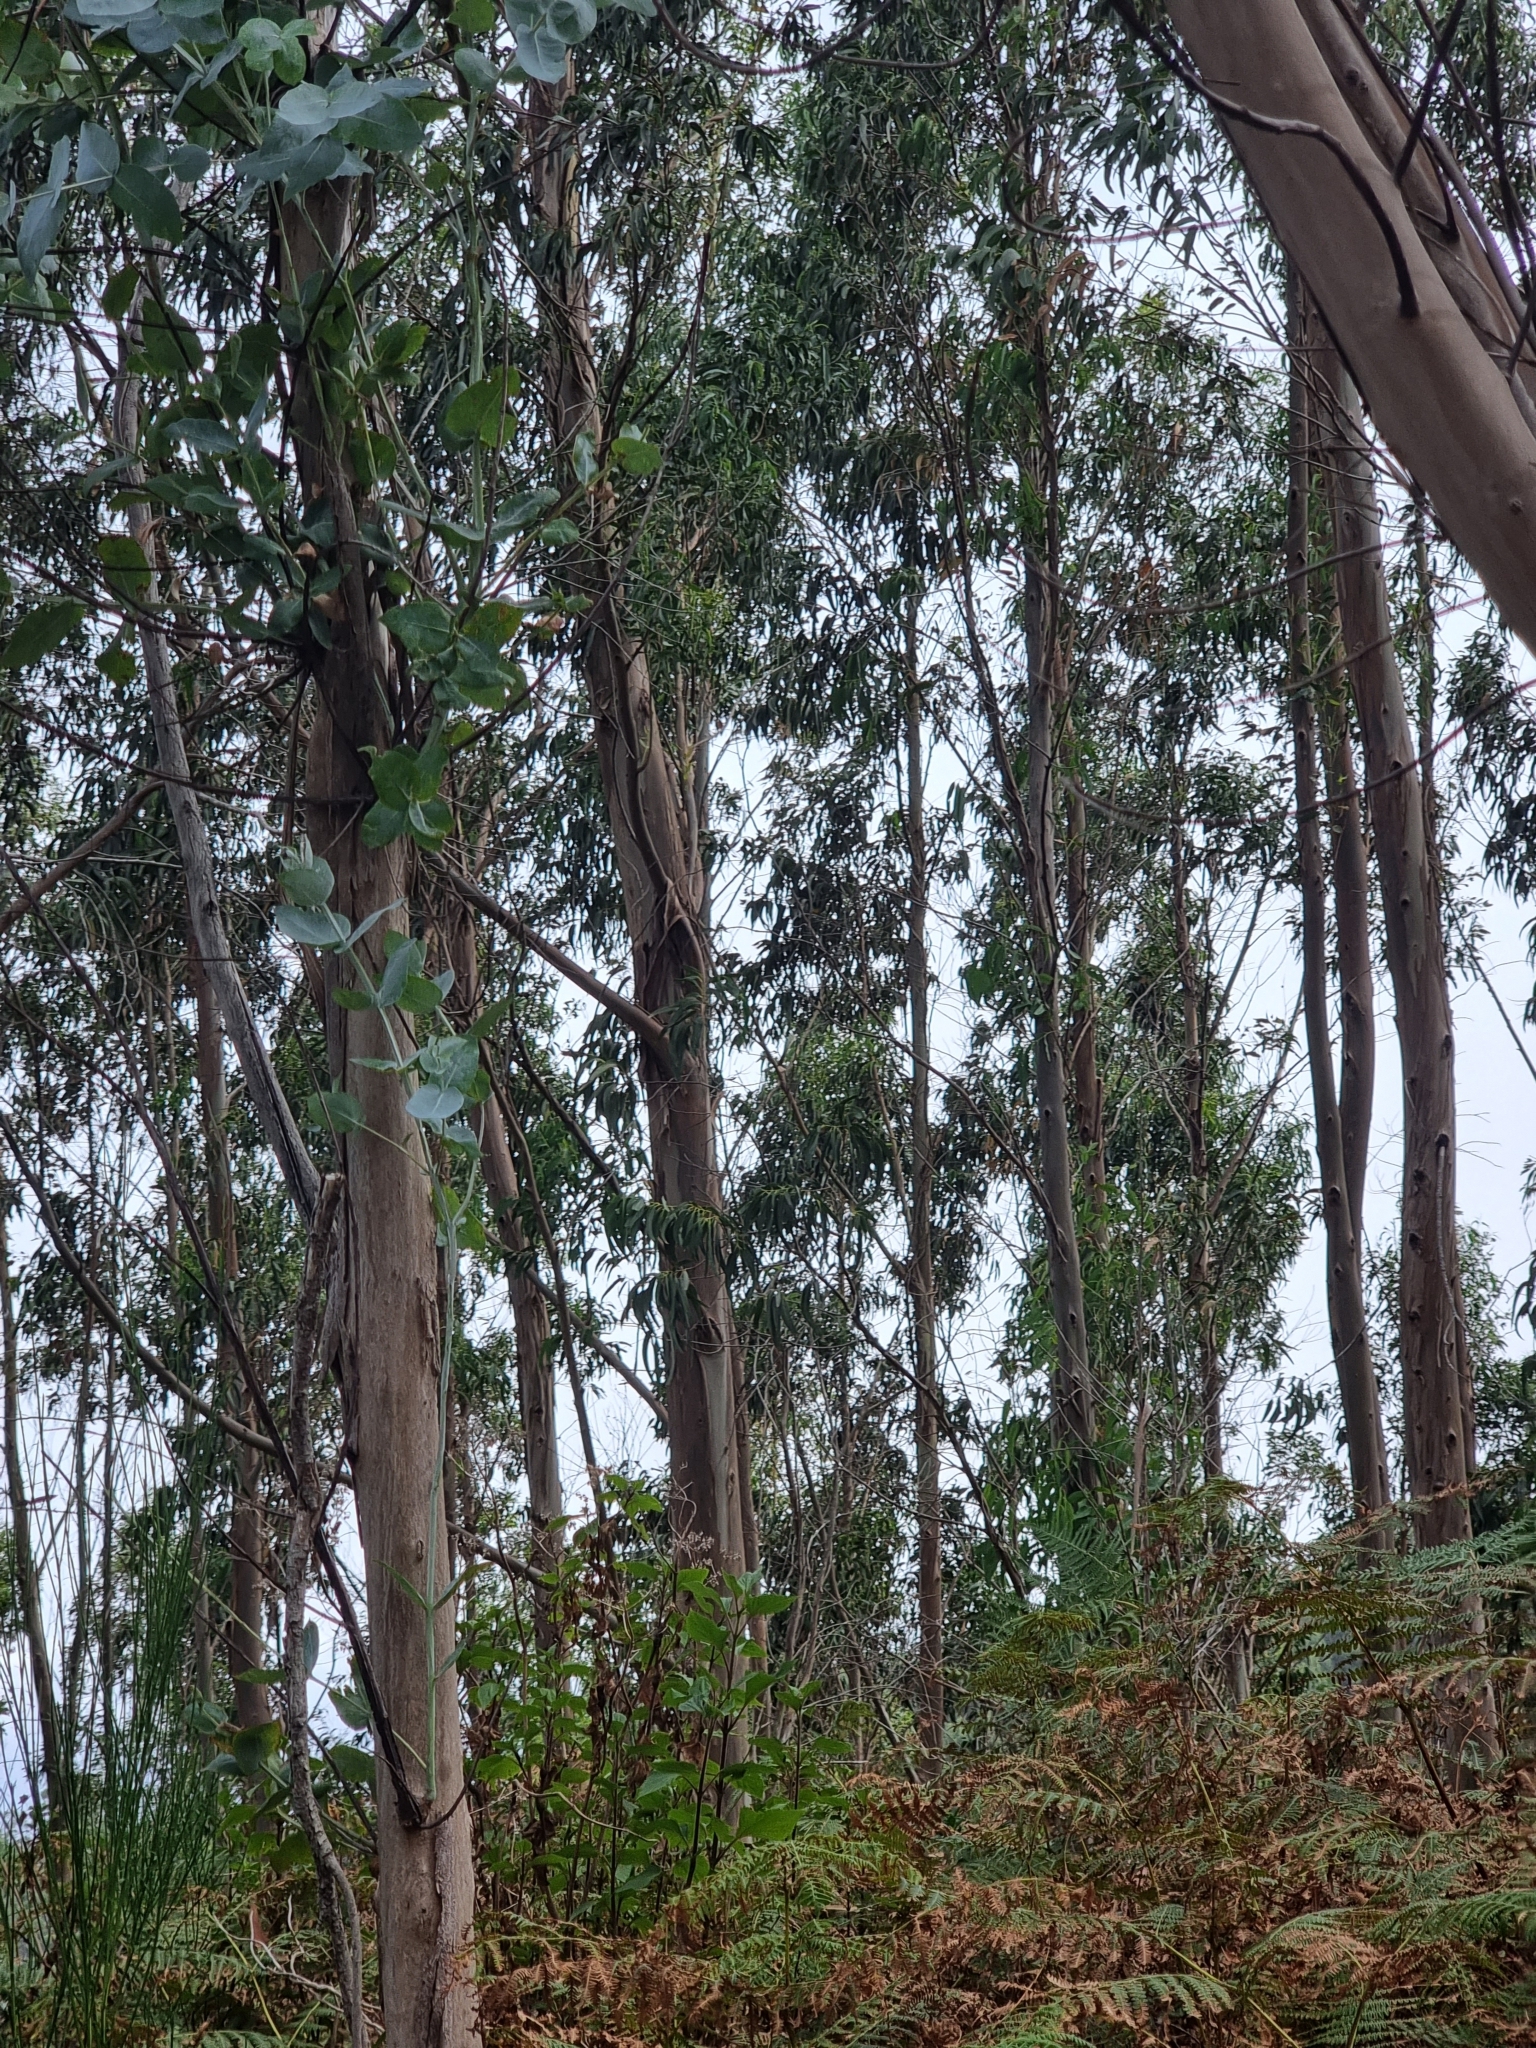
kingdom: Plantae
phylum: Tracheophyta
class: Magnoliopsida
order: Myrtales
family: Myrtaceae
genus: Eucalyptus
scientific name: Eucalyptus globulus
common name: Southern blue-gum
